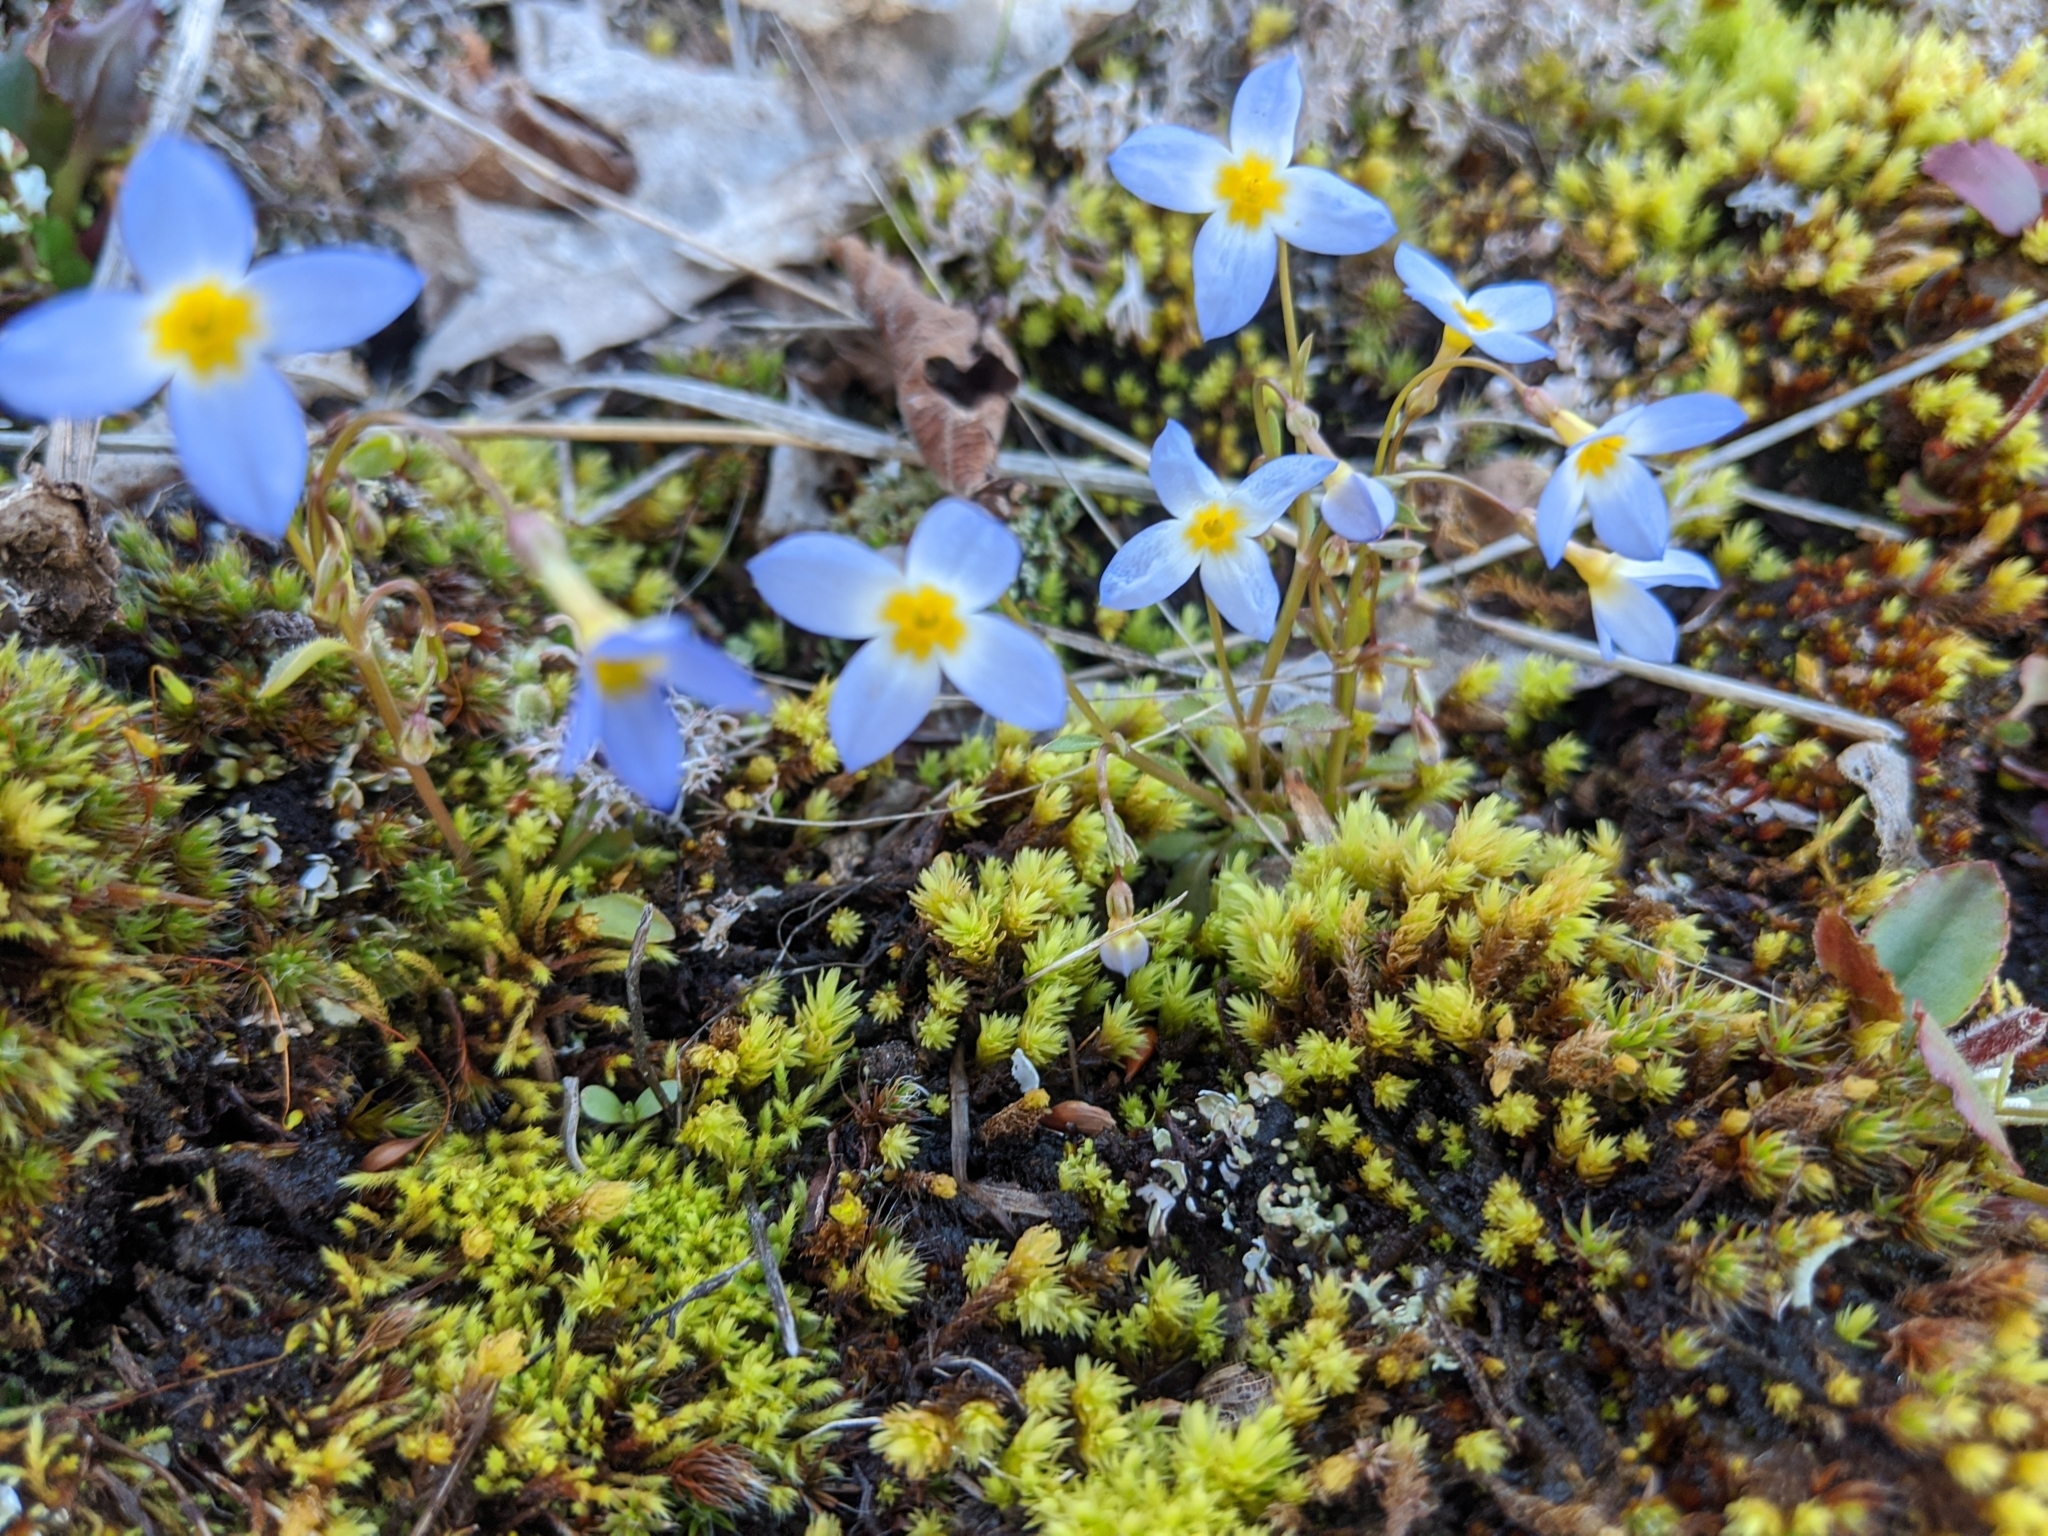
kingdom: Plantae
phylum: Tracheophyta
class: Magnoliopsida
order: Gentianales
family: Rubiaceae
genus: Houstonia
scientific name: Houstonia caerulea
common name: Bluets
